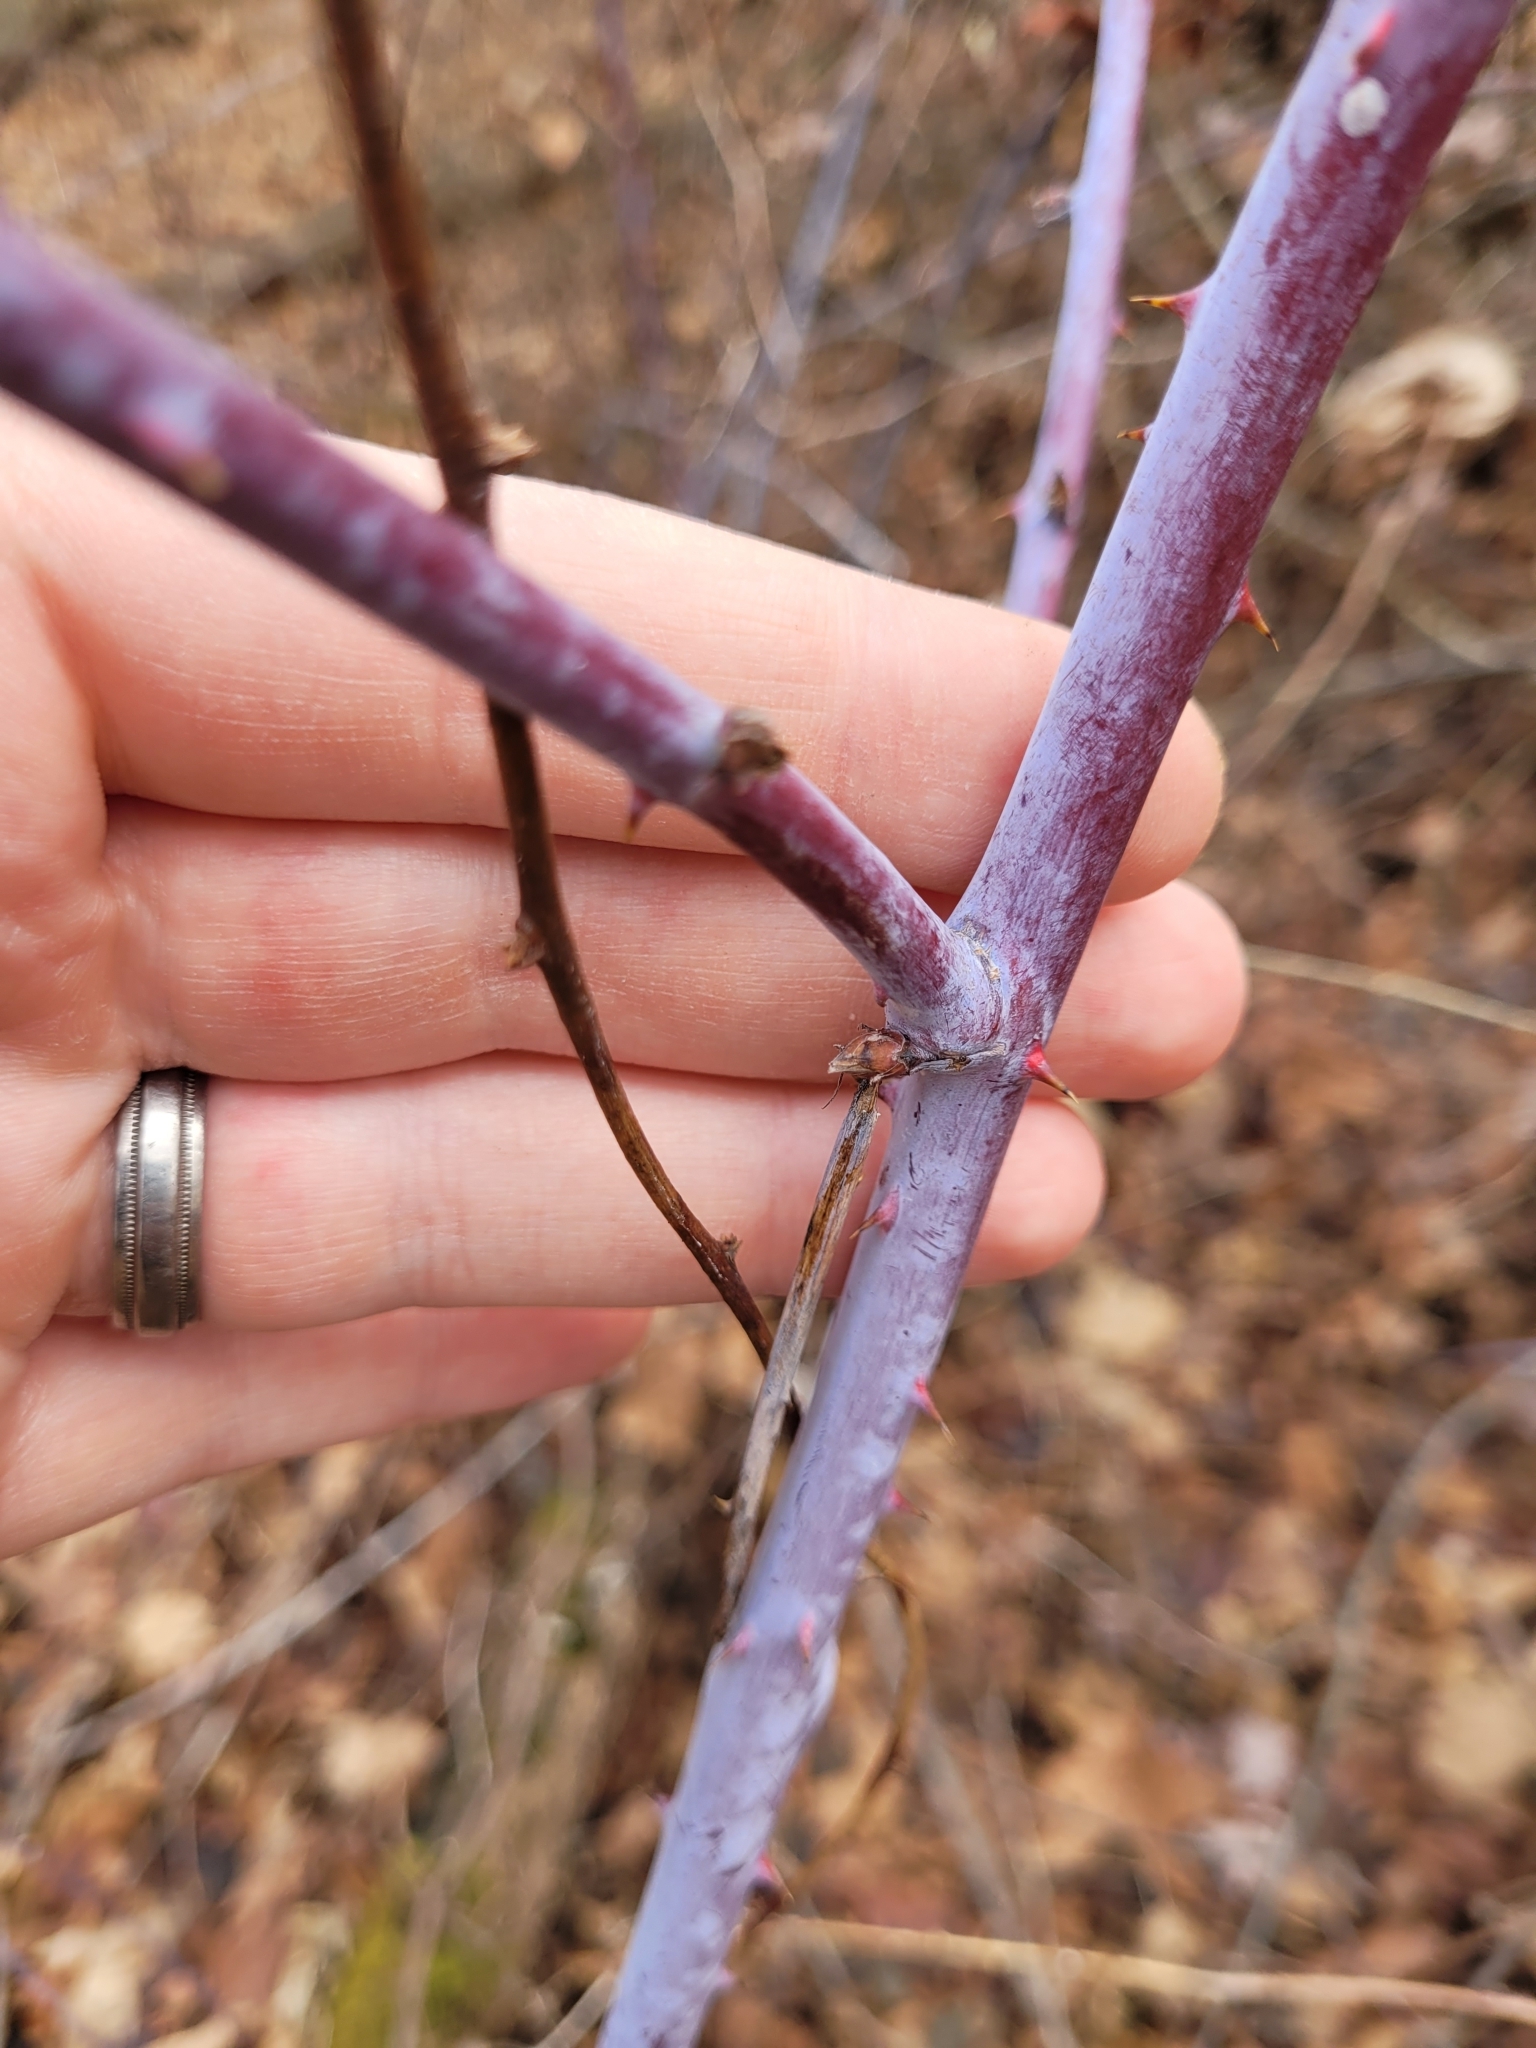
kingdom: Plantae
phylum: Tracheophyta
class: Magnoliopsida
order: Rosales
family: Rosaceae
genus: Rubus
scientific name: Rubus occidentalis
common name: Black raspberry
